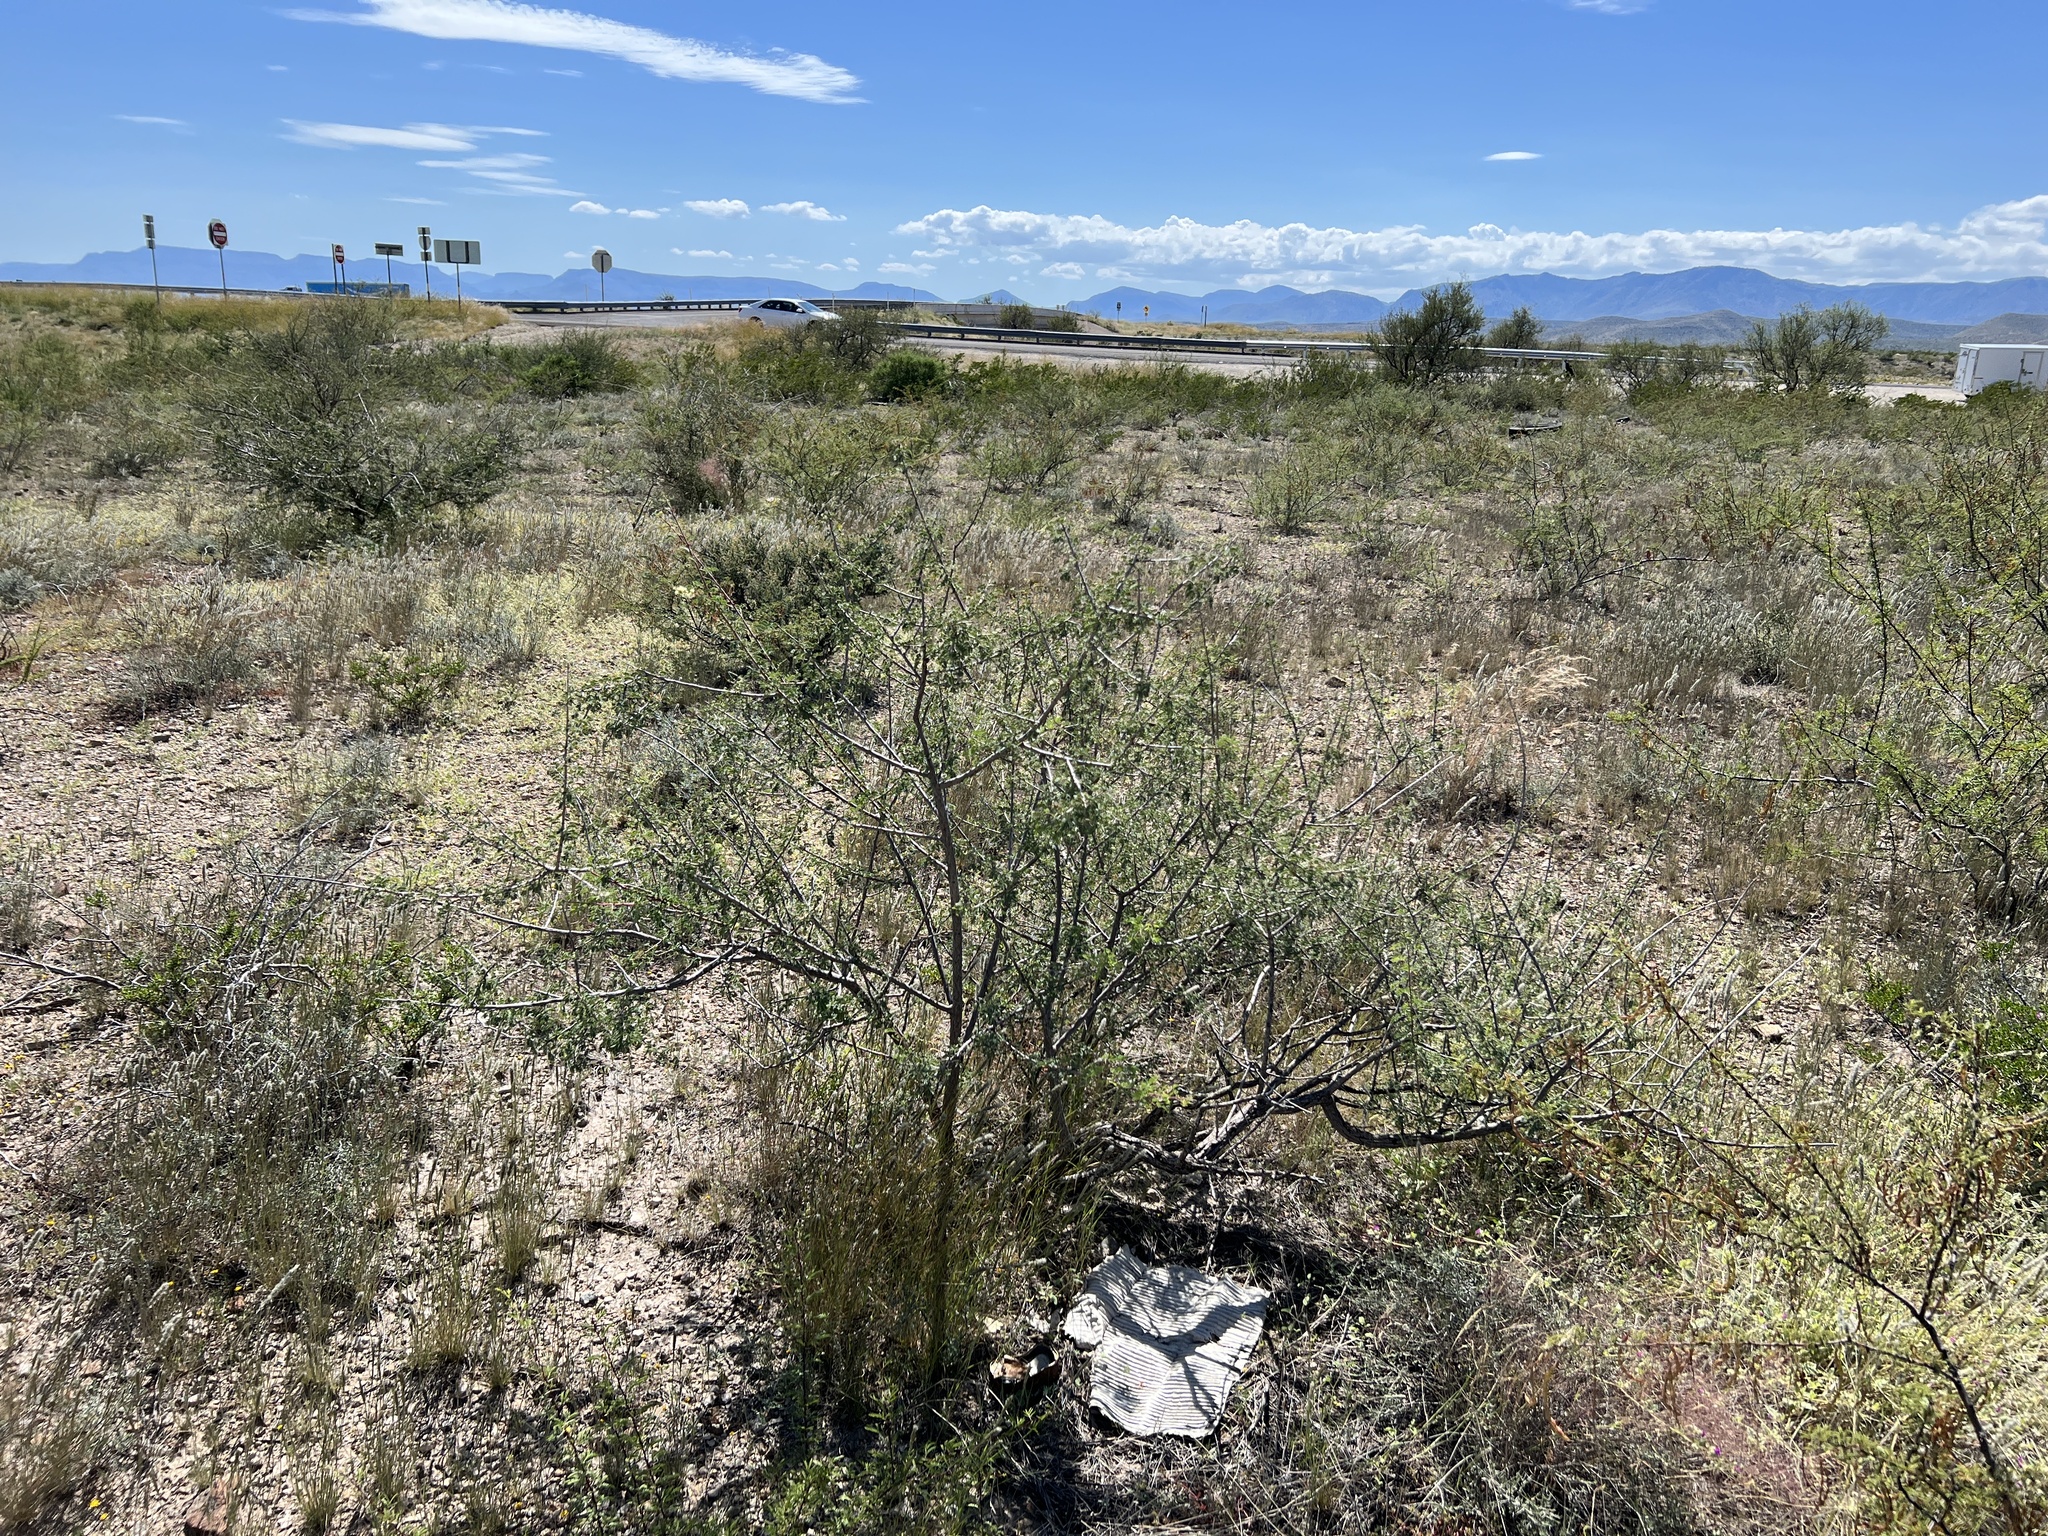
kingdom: Plantae
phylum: Tracheophyta
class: Magnoliopsida
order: Fabales
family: Fabaceae
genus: Senegalia
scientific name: Senegalia greggii
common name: Texas-mimosa
